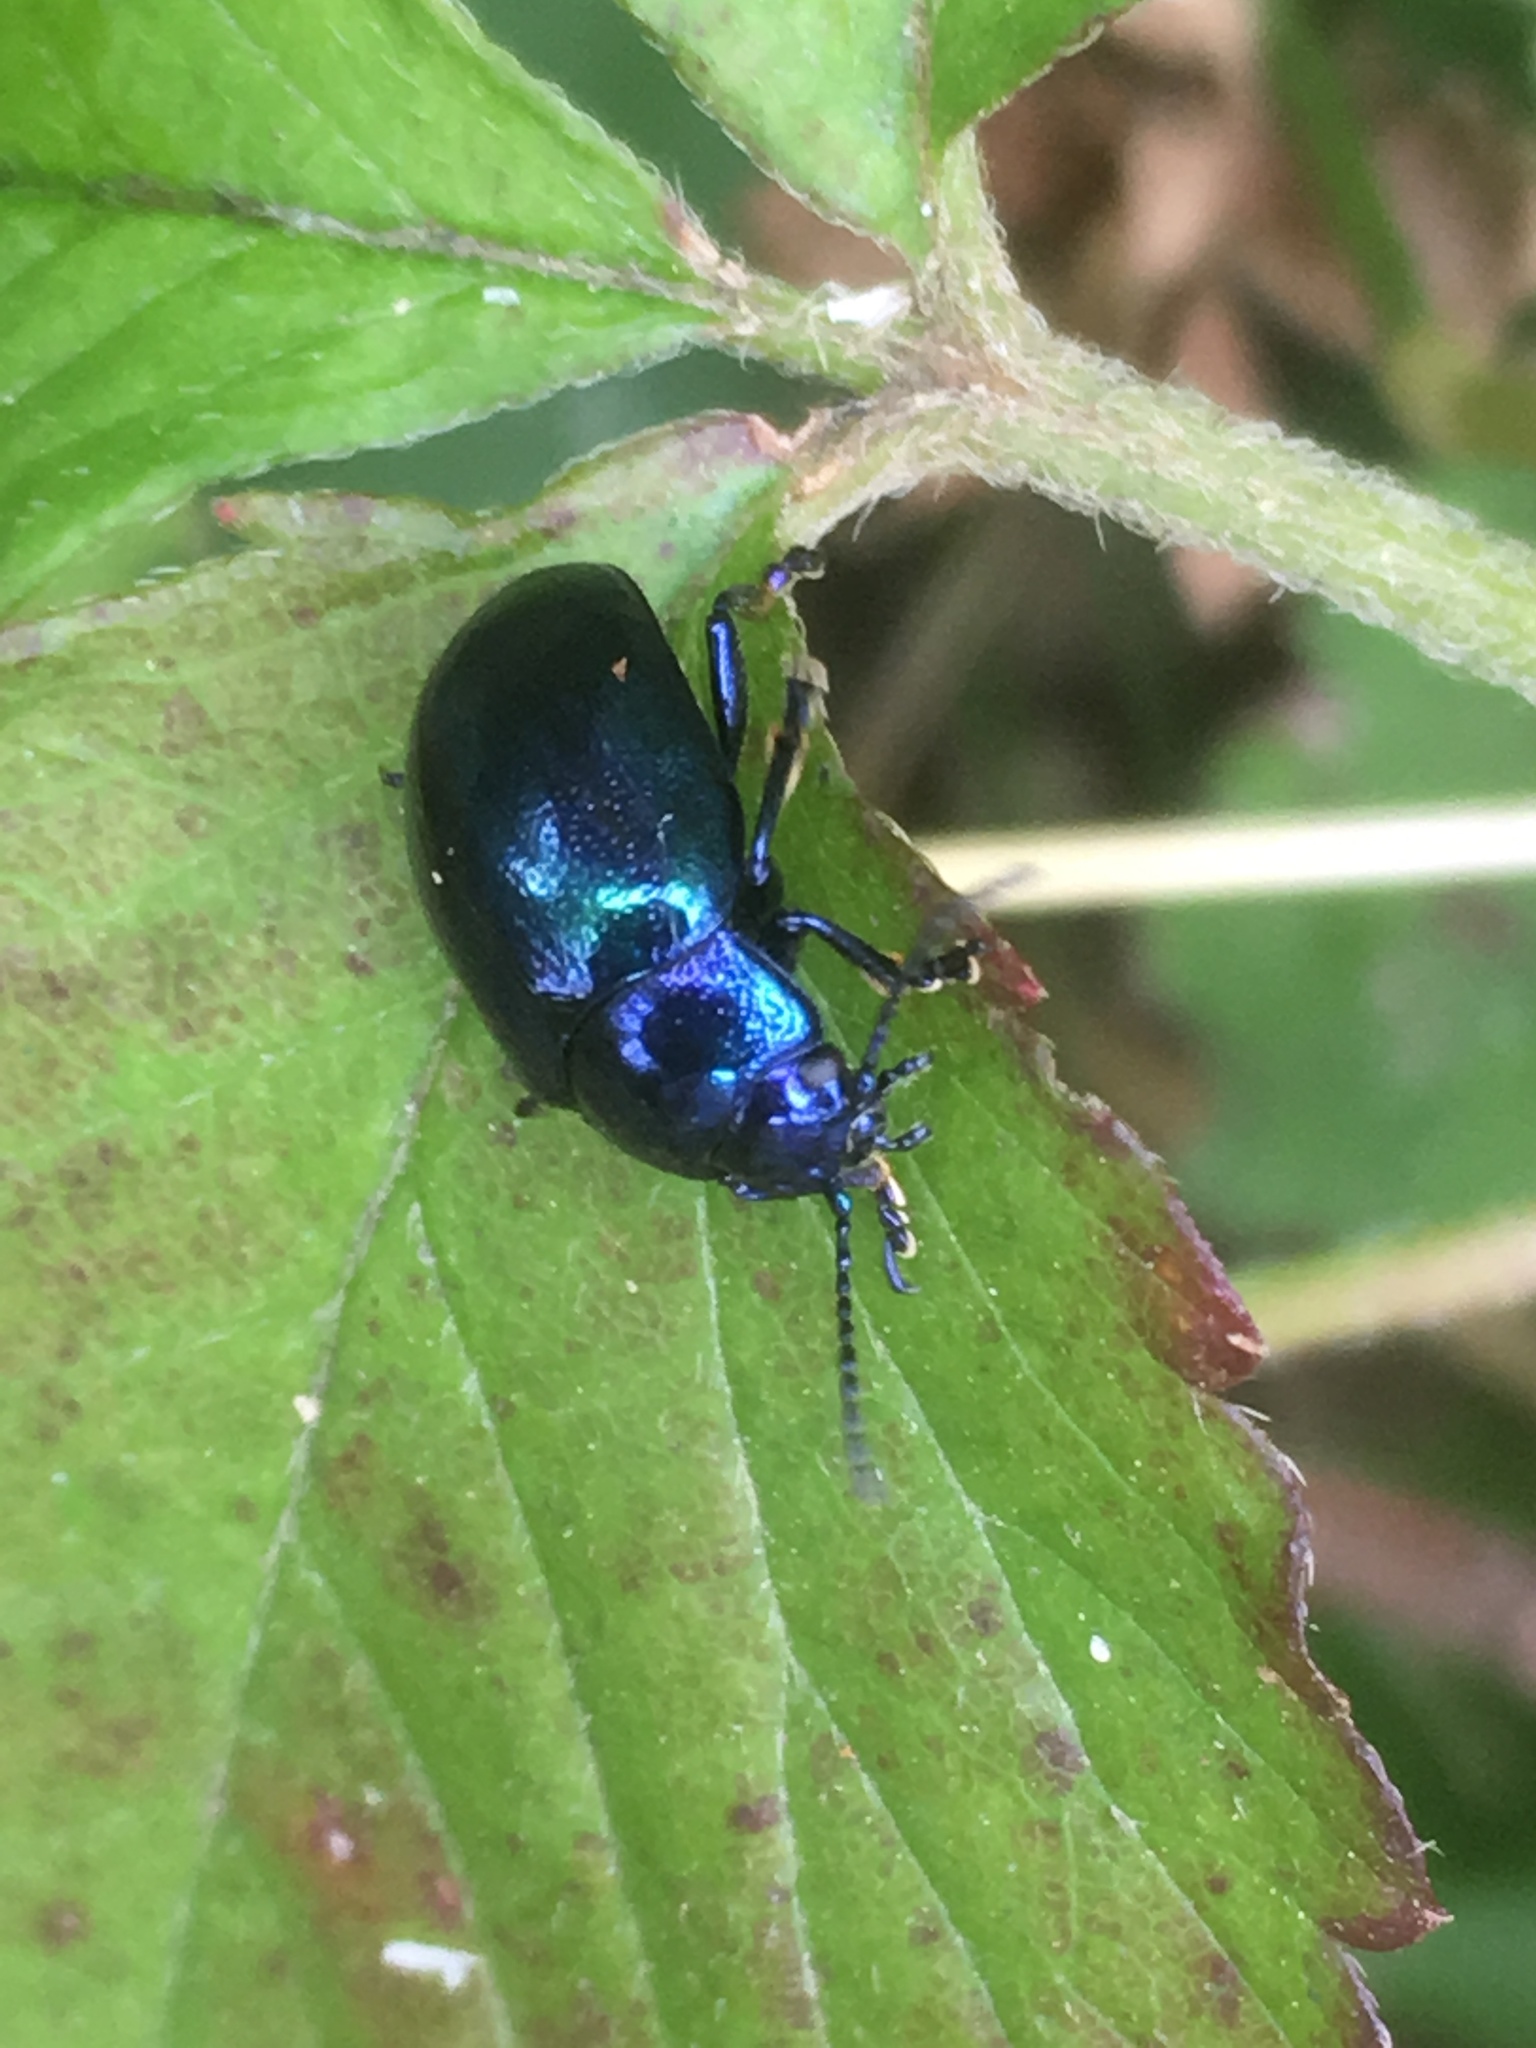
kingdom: Animalia
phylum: Arthropoda
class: Insecta
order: Coleoptera
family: Chrysomelidae
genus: Chrysolina
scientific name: Chrysolina coerulans
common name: Blue mint beetle
